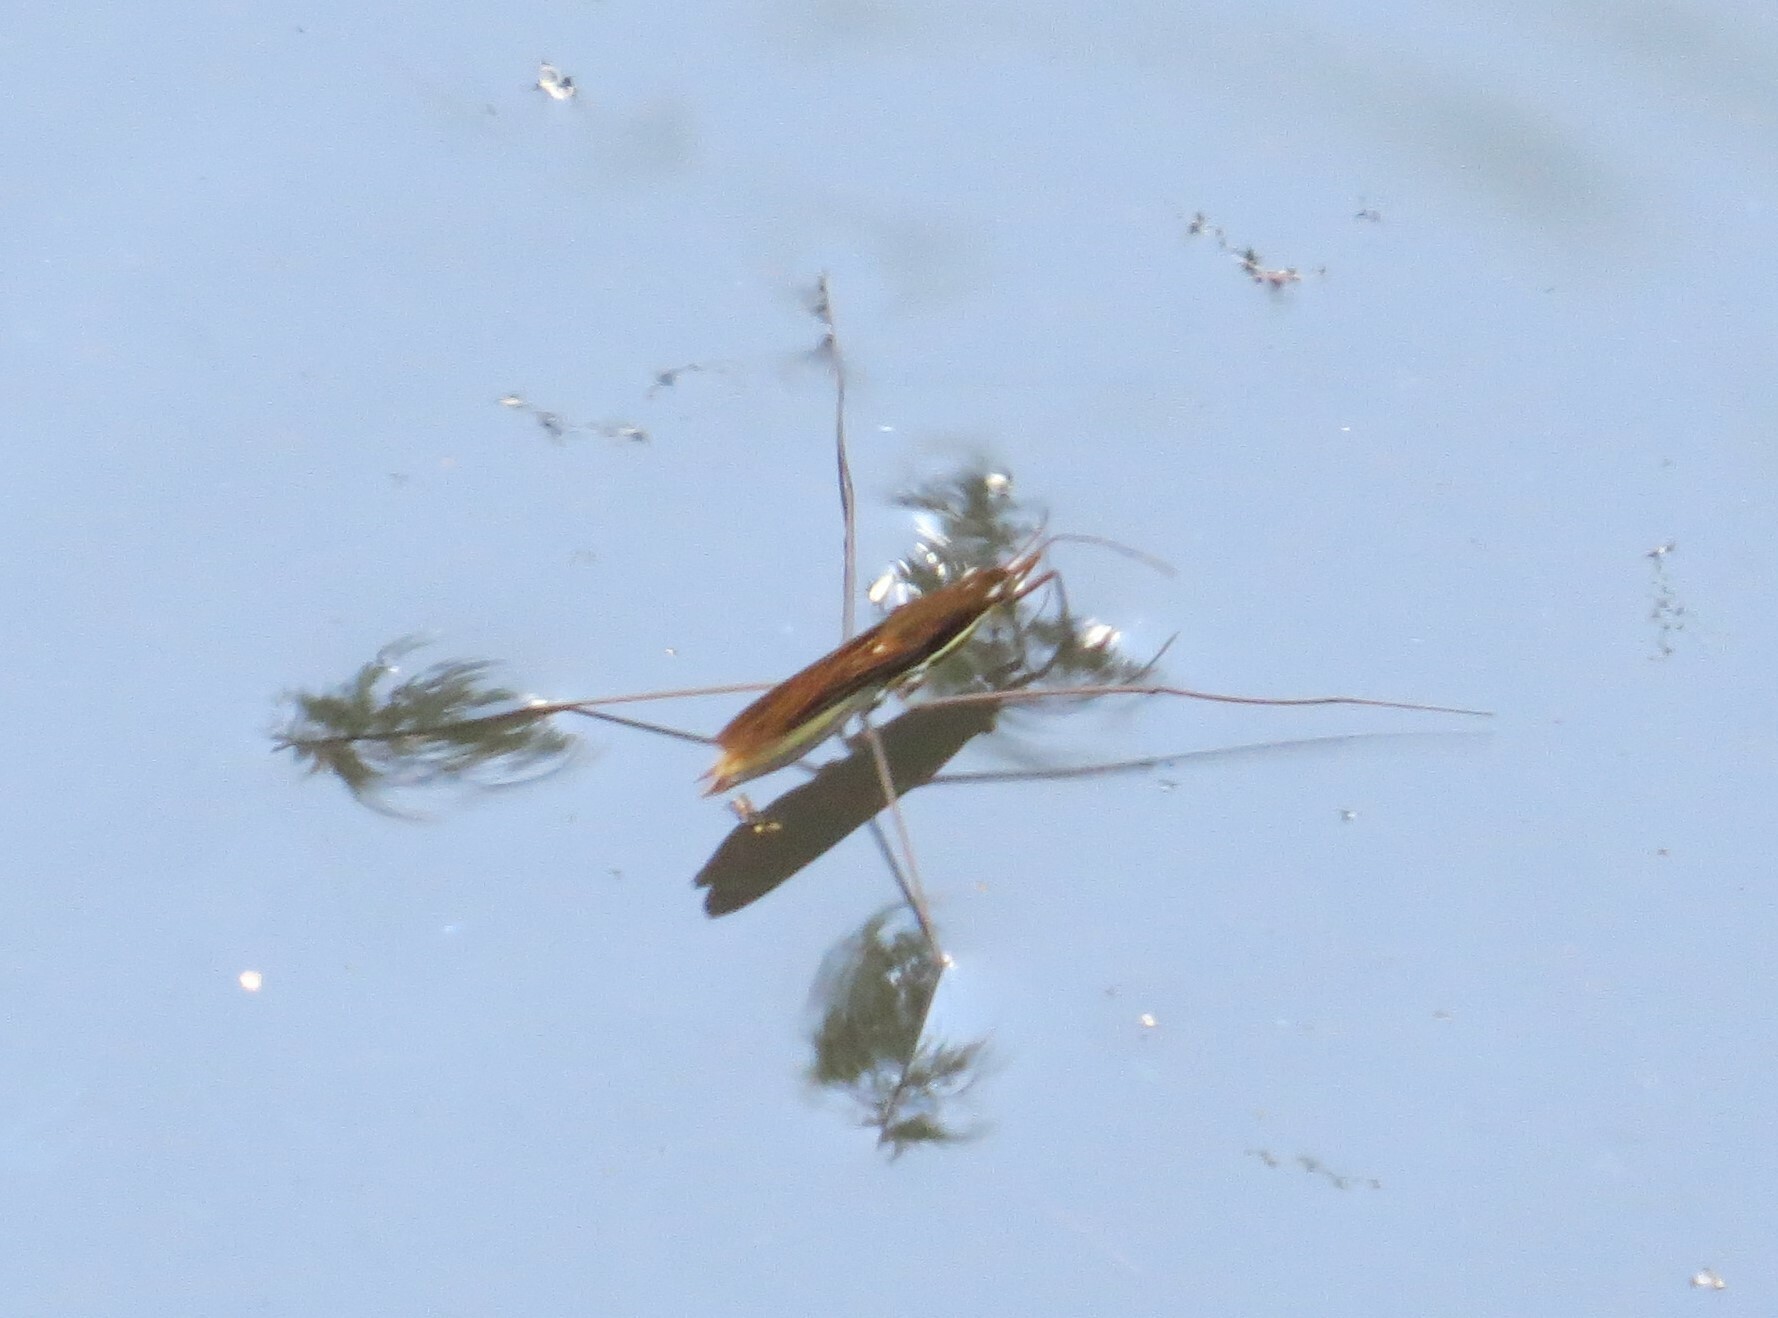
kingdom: Animalia
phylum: Arthropoda
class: Insecta
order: Hemiptera
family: Gerridae
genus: Limnoporus
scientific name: Limnoporus dissortis
